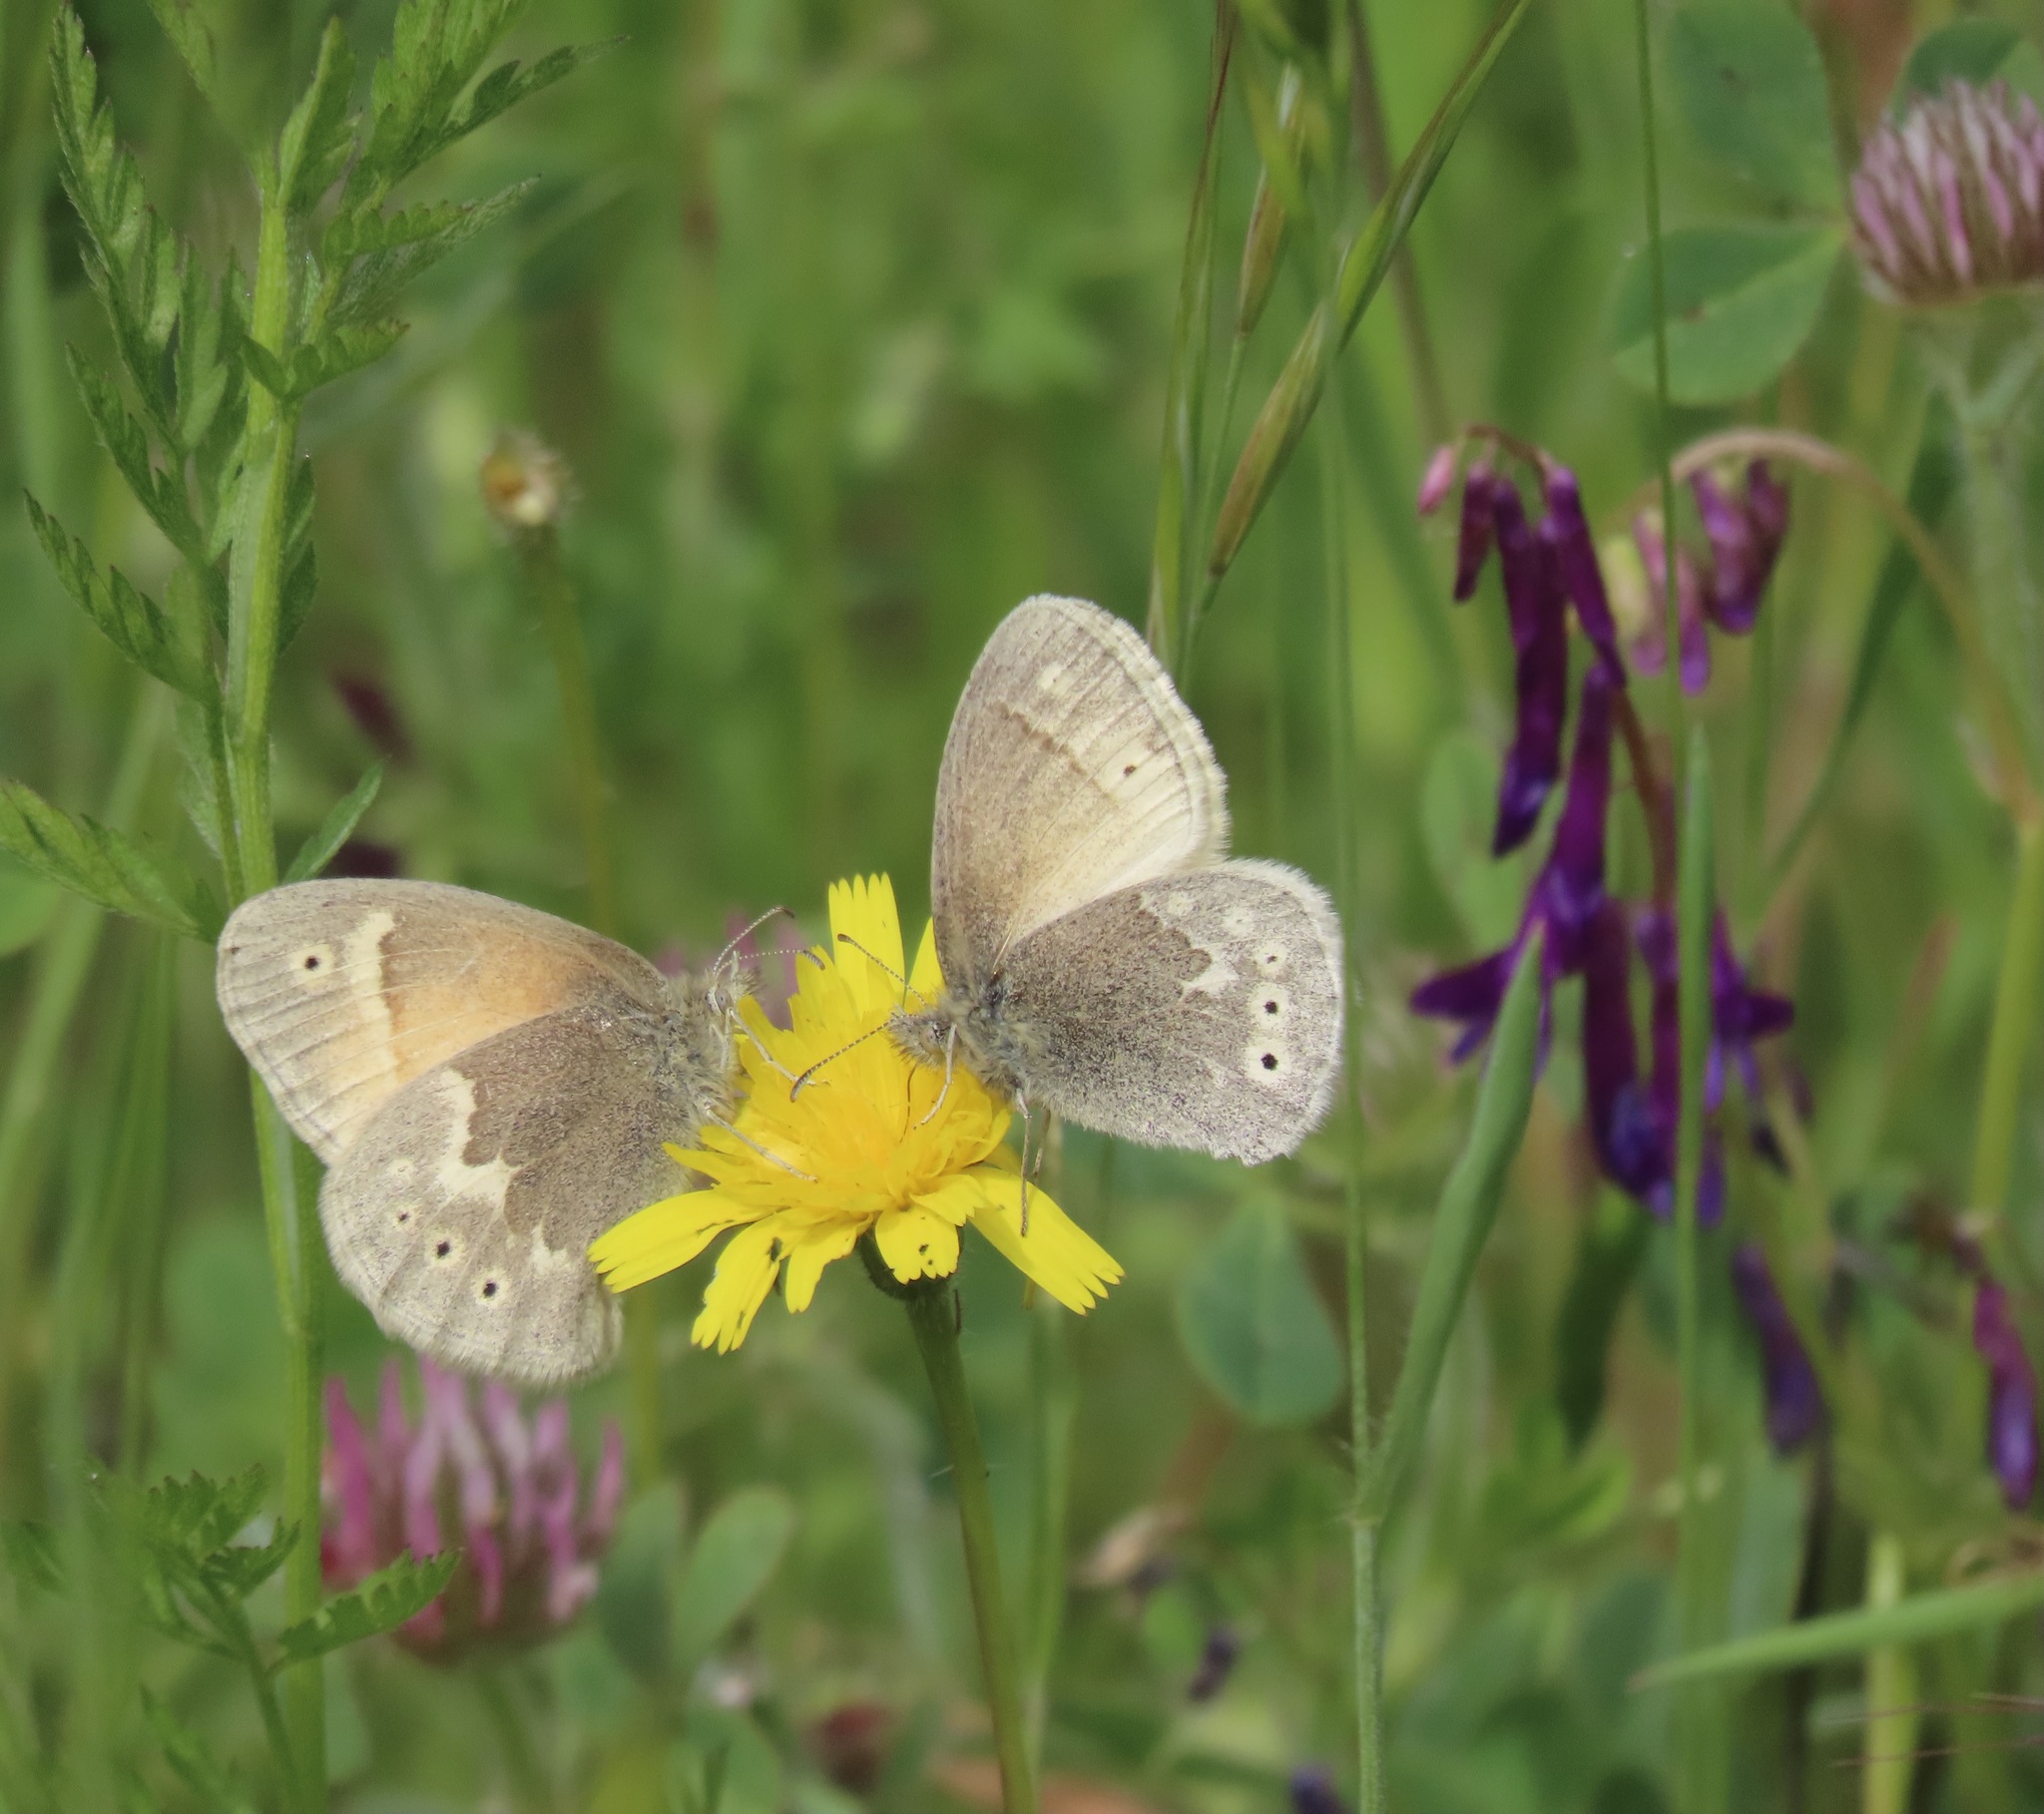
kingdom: Animalia
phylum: Arthropoda
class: Insecta
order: Lepidoptera
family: Nymphalidae
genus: Coenonympha
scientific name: Coenonympha california
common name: Common ringlet
